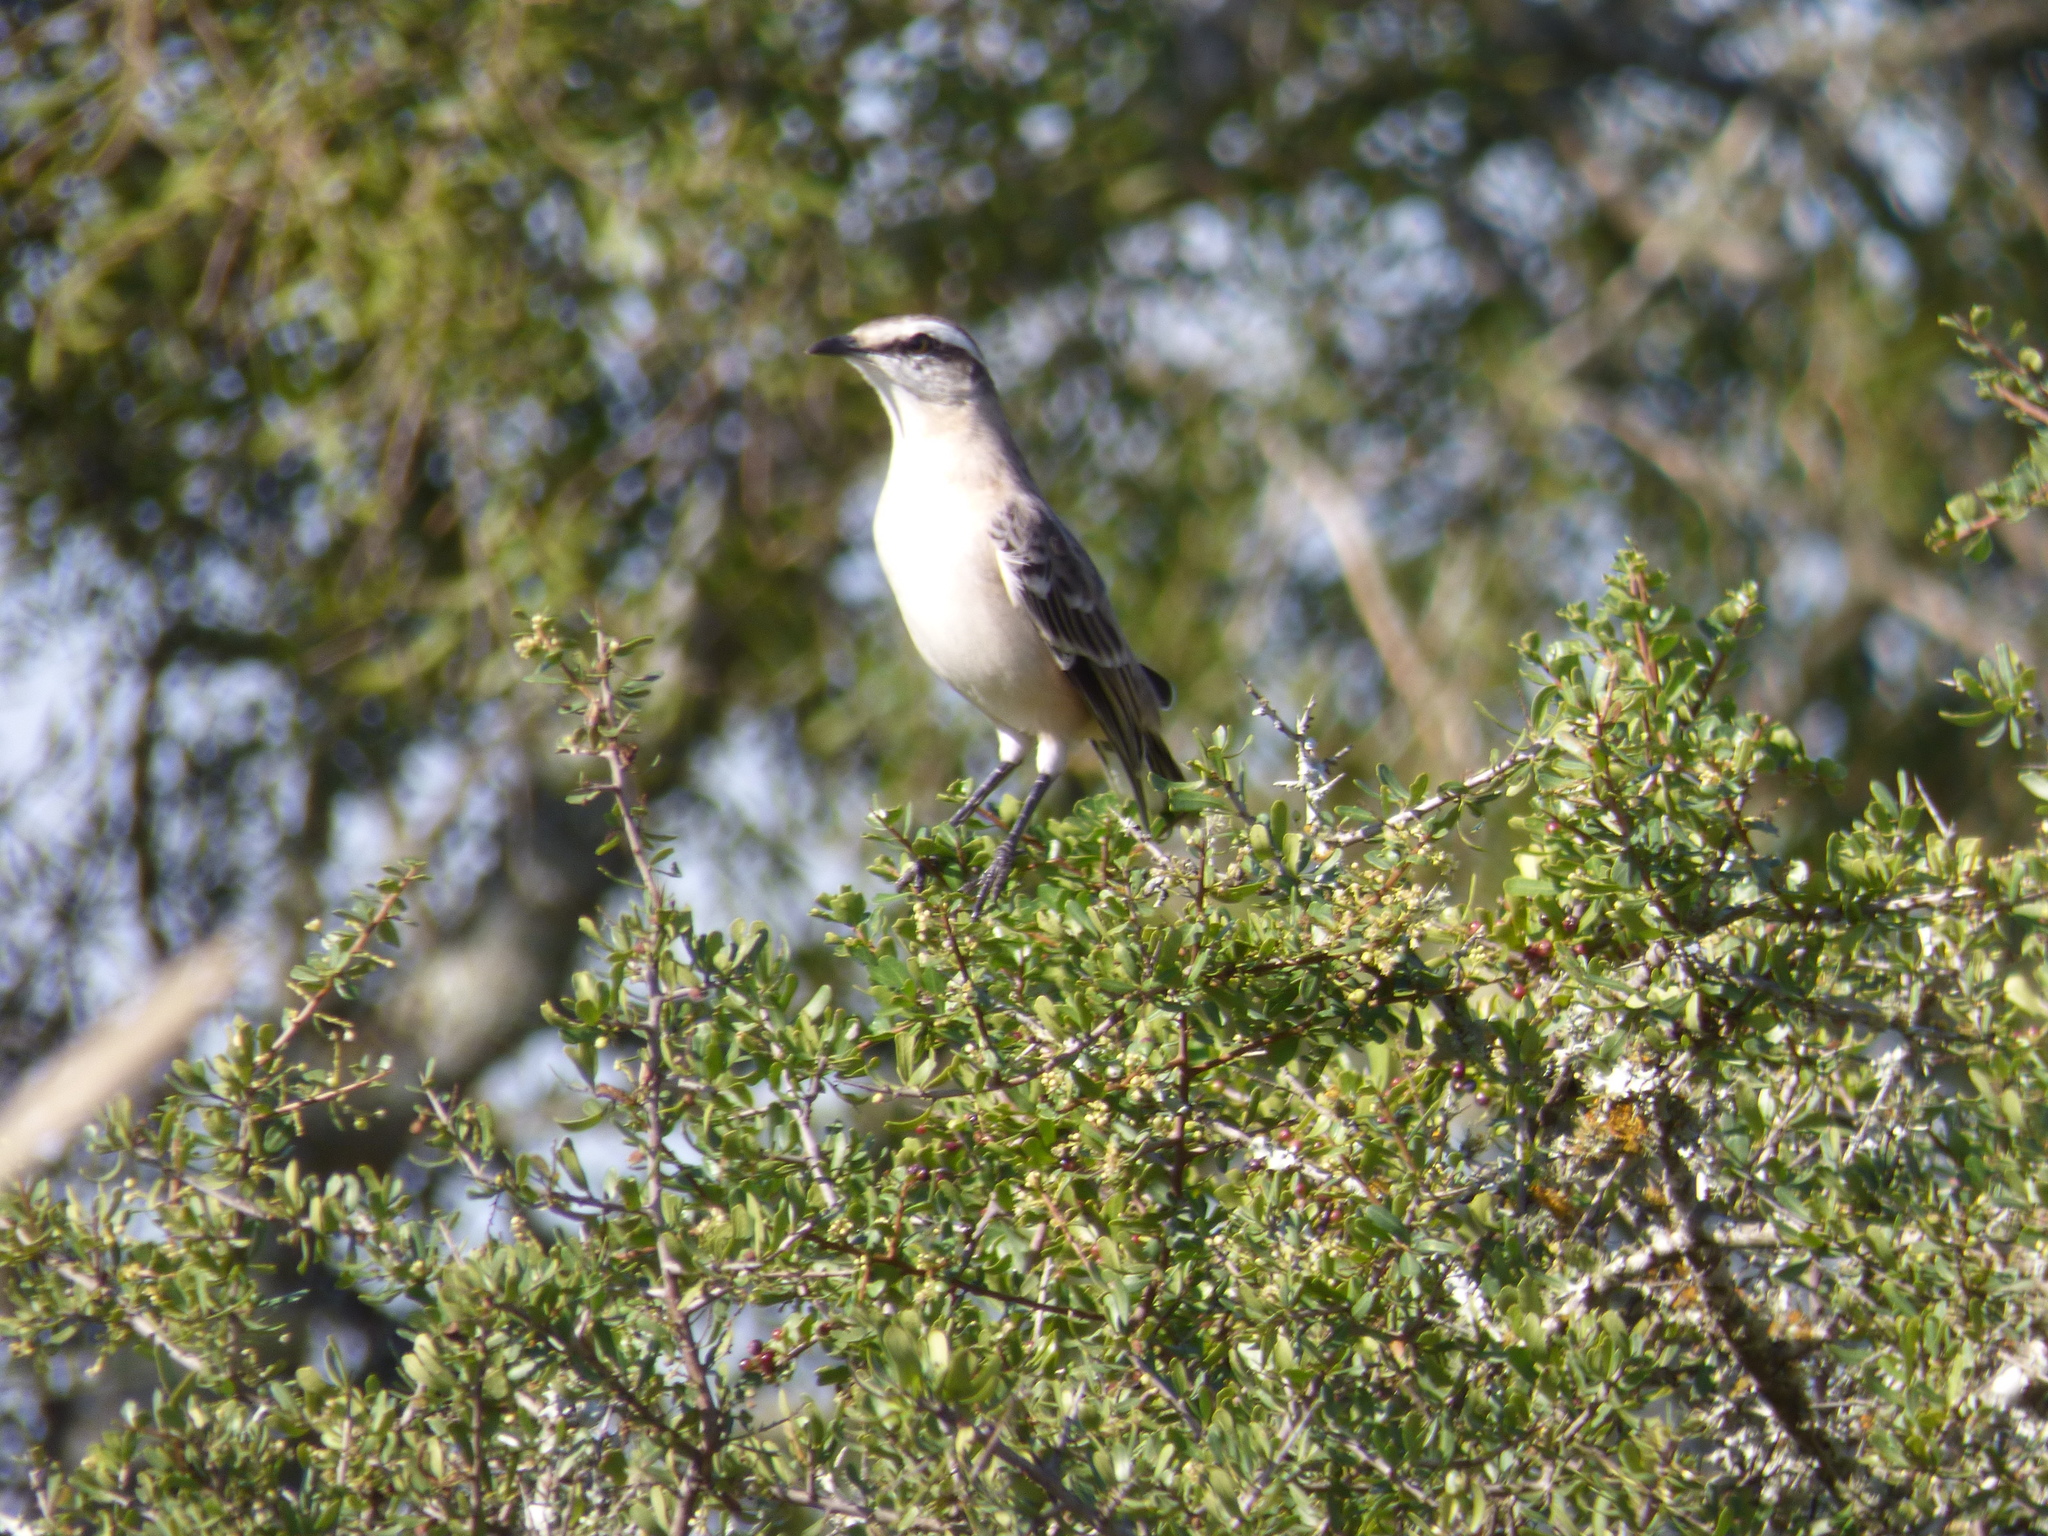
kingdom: Animalia
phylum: Chordata
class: Aves
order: Passeriformes
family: Mimidae
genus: Mimus
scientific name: Mimus saturninus
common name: Chalk-browed mockingbird
